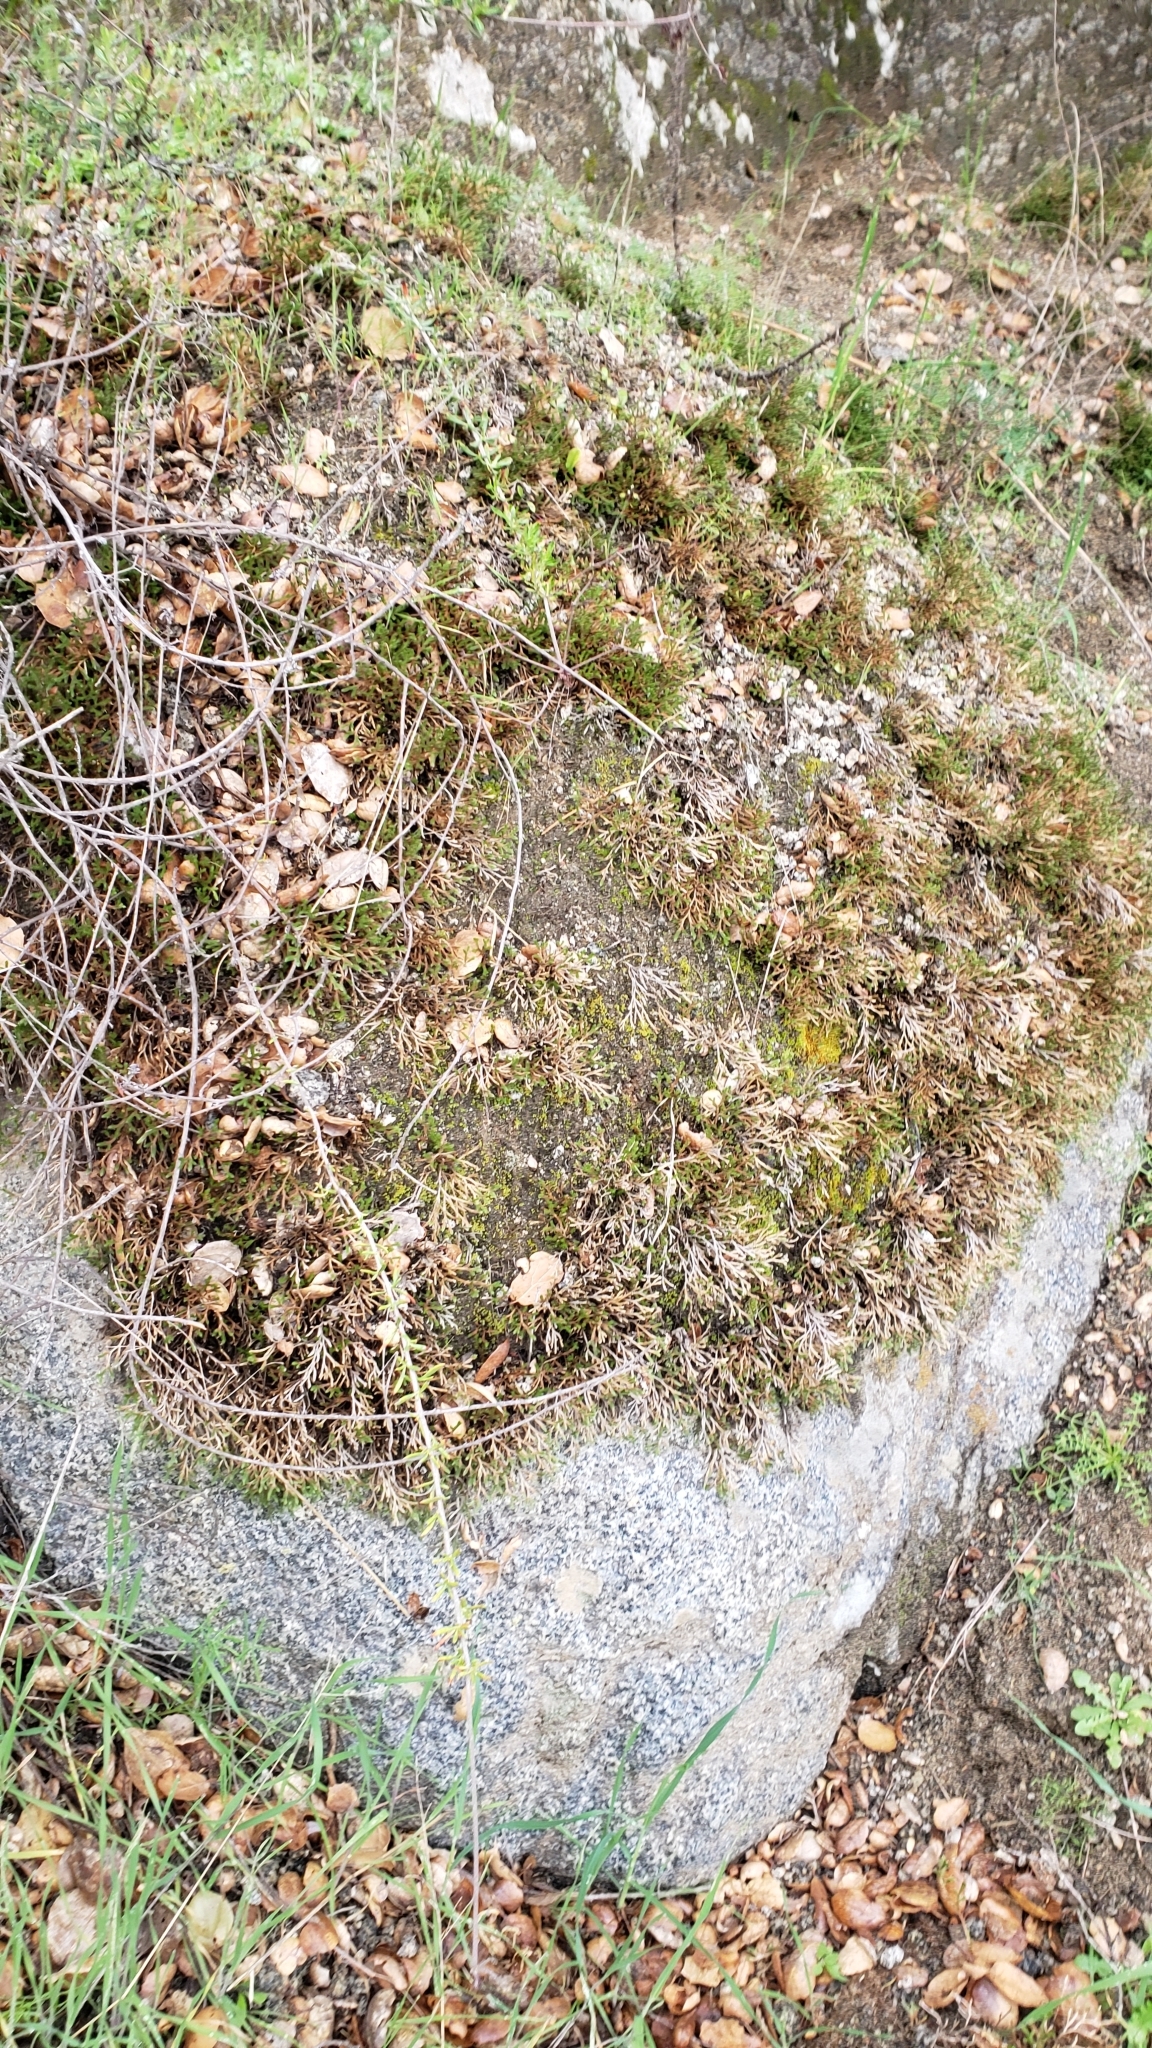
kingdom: Plantae
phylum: Tracheophyta
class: Lycopodiopsida
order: Selaginellales
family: Selaginellaceae
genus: Selaginella
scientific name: Selaginella bigelovii
